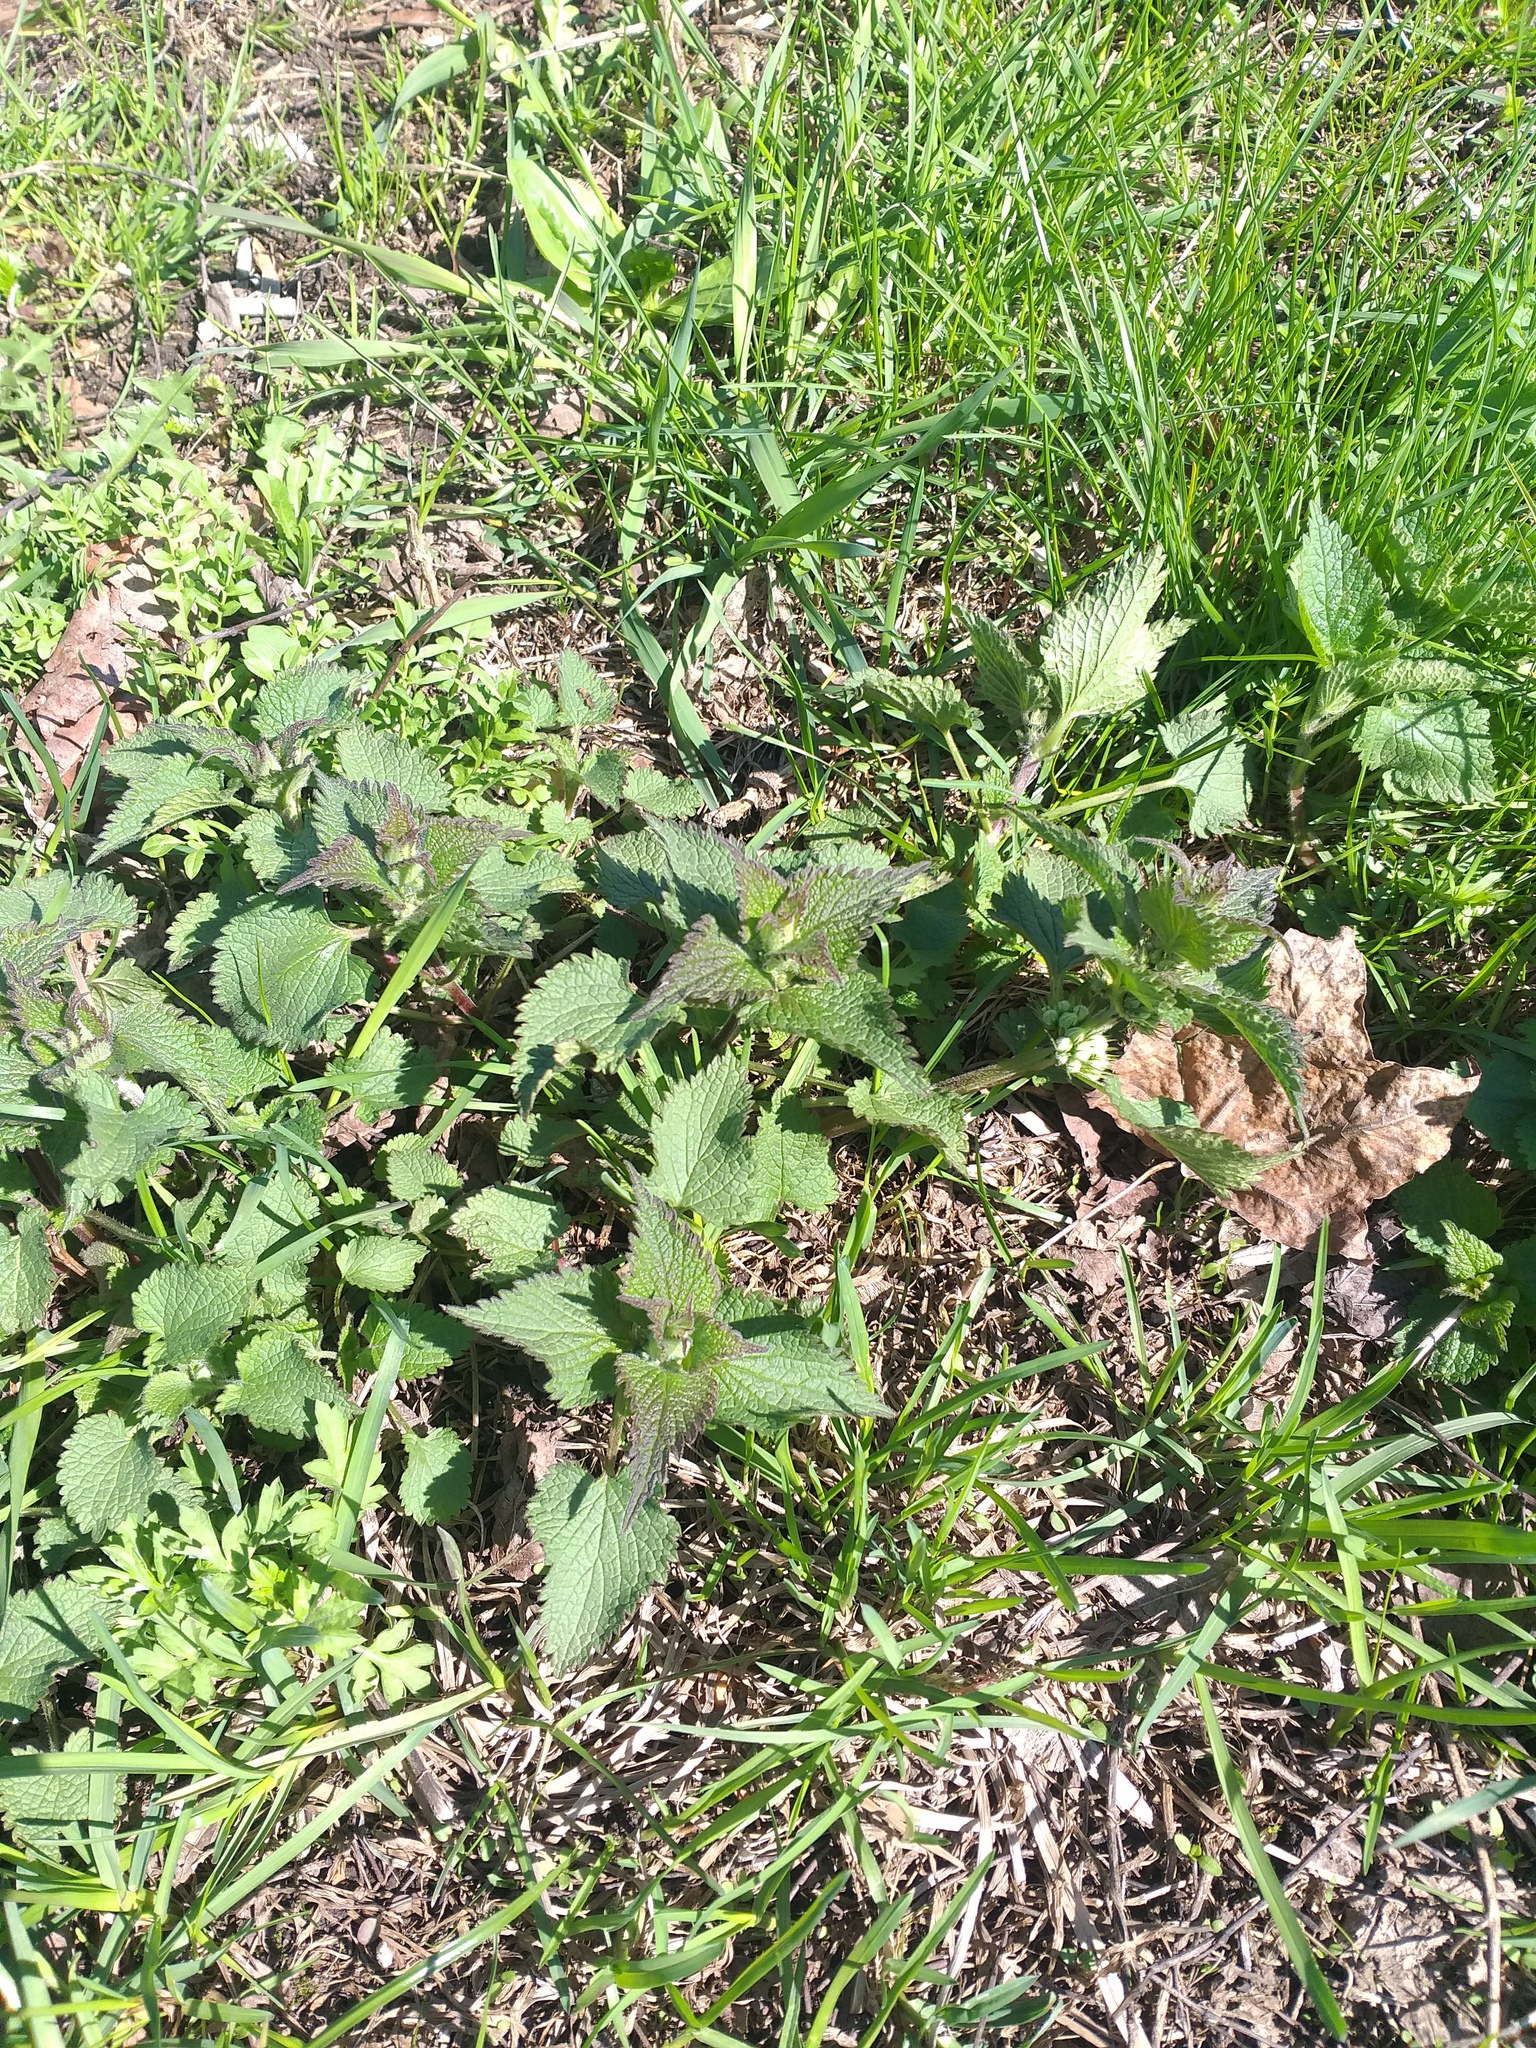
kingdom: Plantae
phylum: Tracheophyta
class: Magnoliopsida
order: Lamiales
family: Lamiaceae
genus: Lamium
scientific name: Lamium album
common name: White dead-nettle
